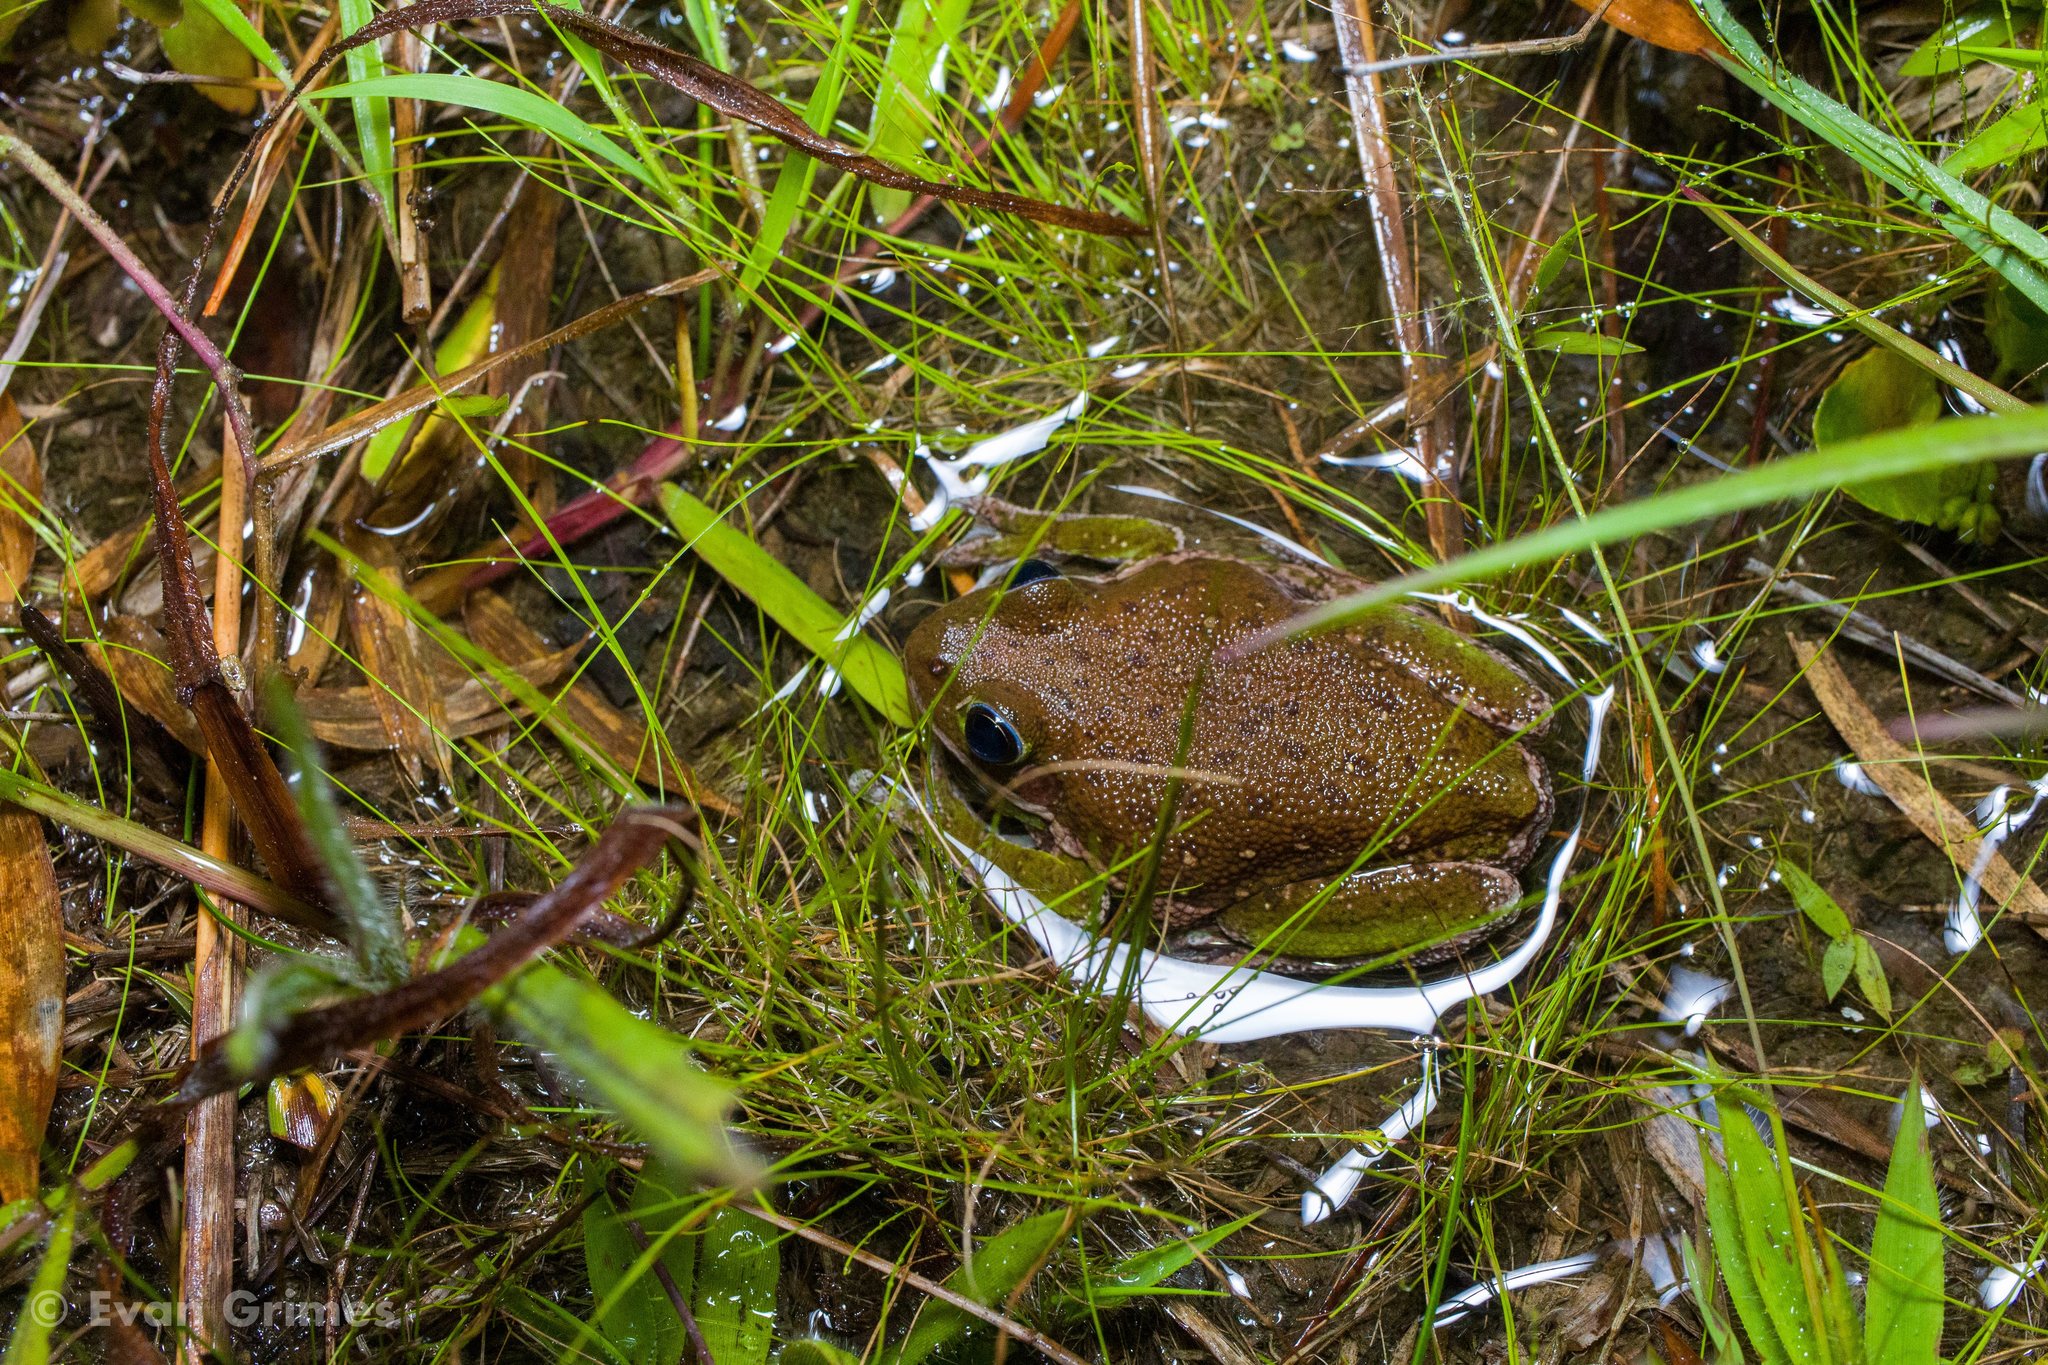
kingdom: Animalia
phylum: Chordata
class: Amphibia
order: Anura
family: Hylidae
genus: Dryophytes
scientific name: Dryophytes gratiosus
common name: Barking treefrog
